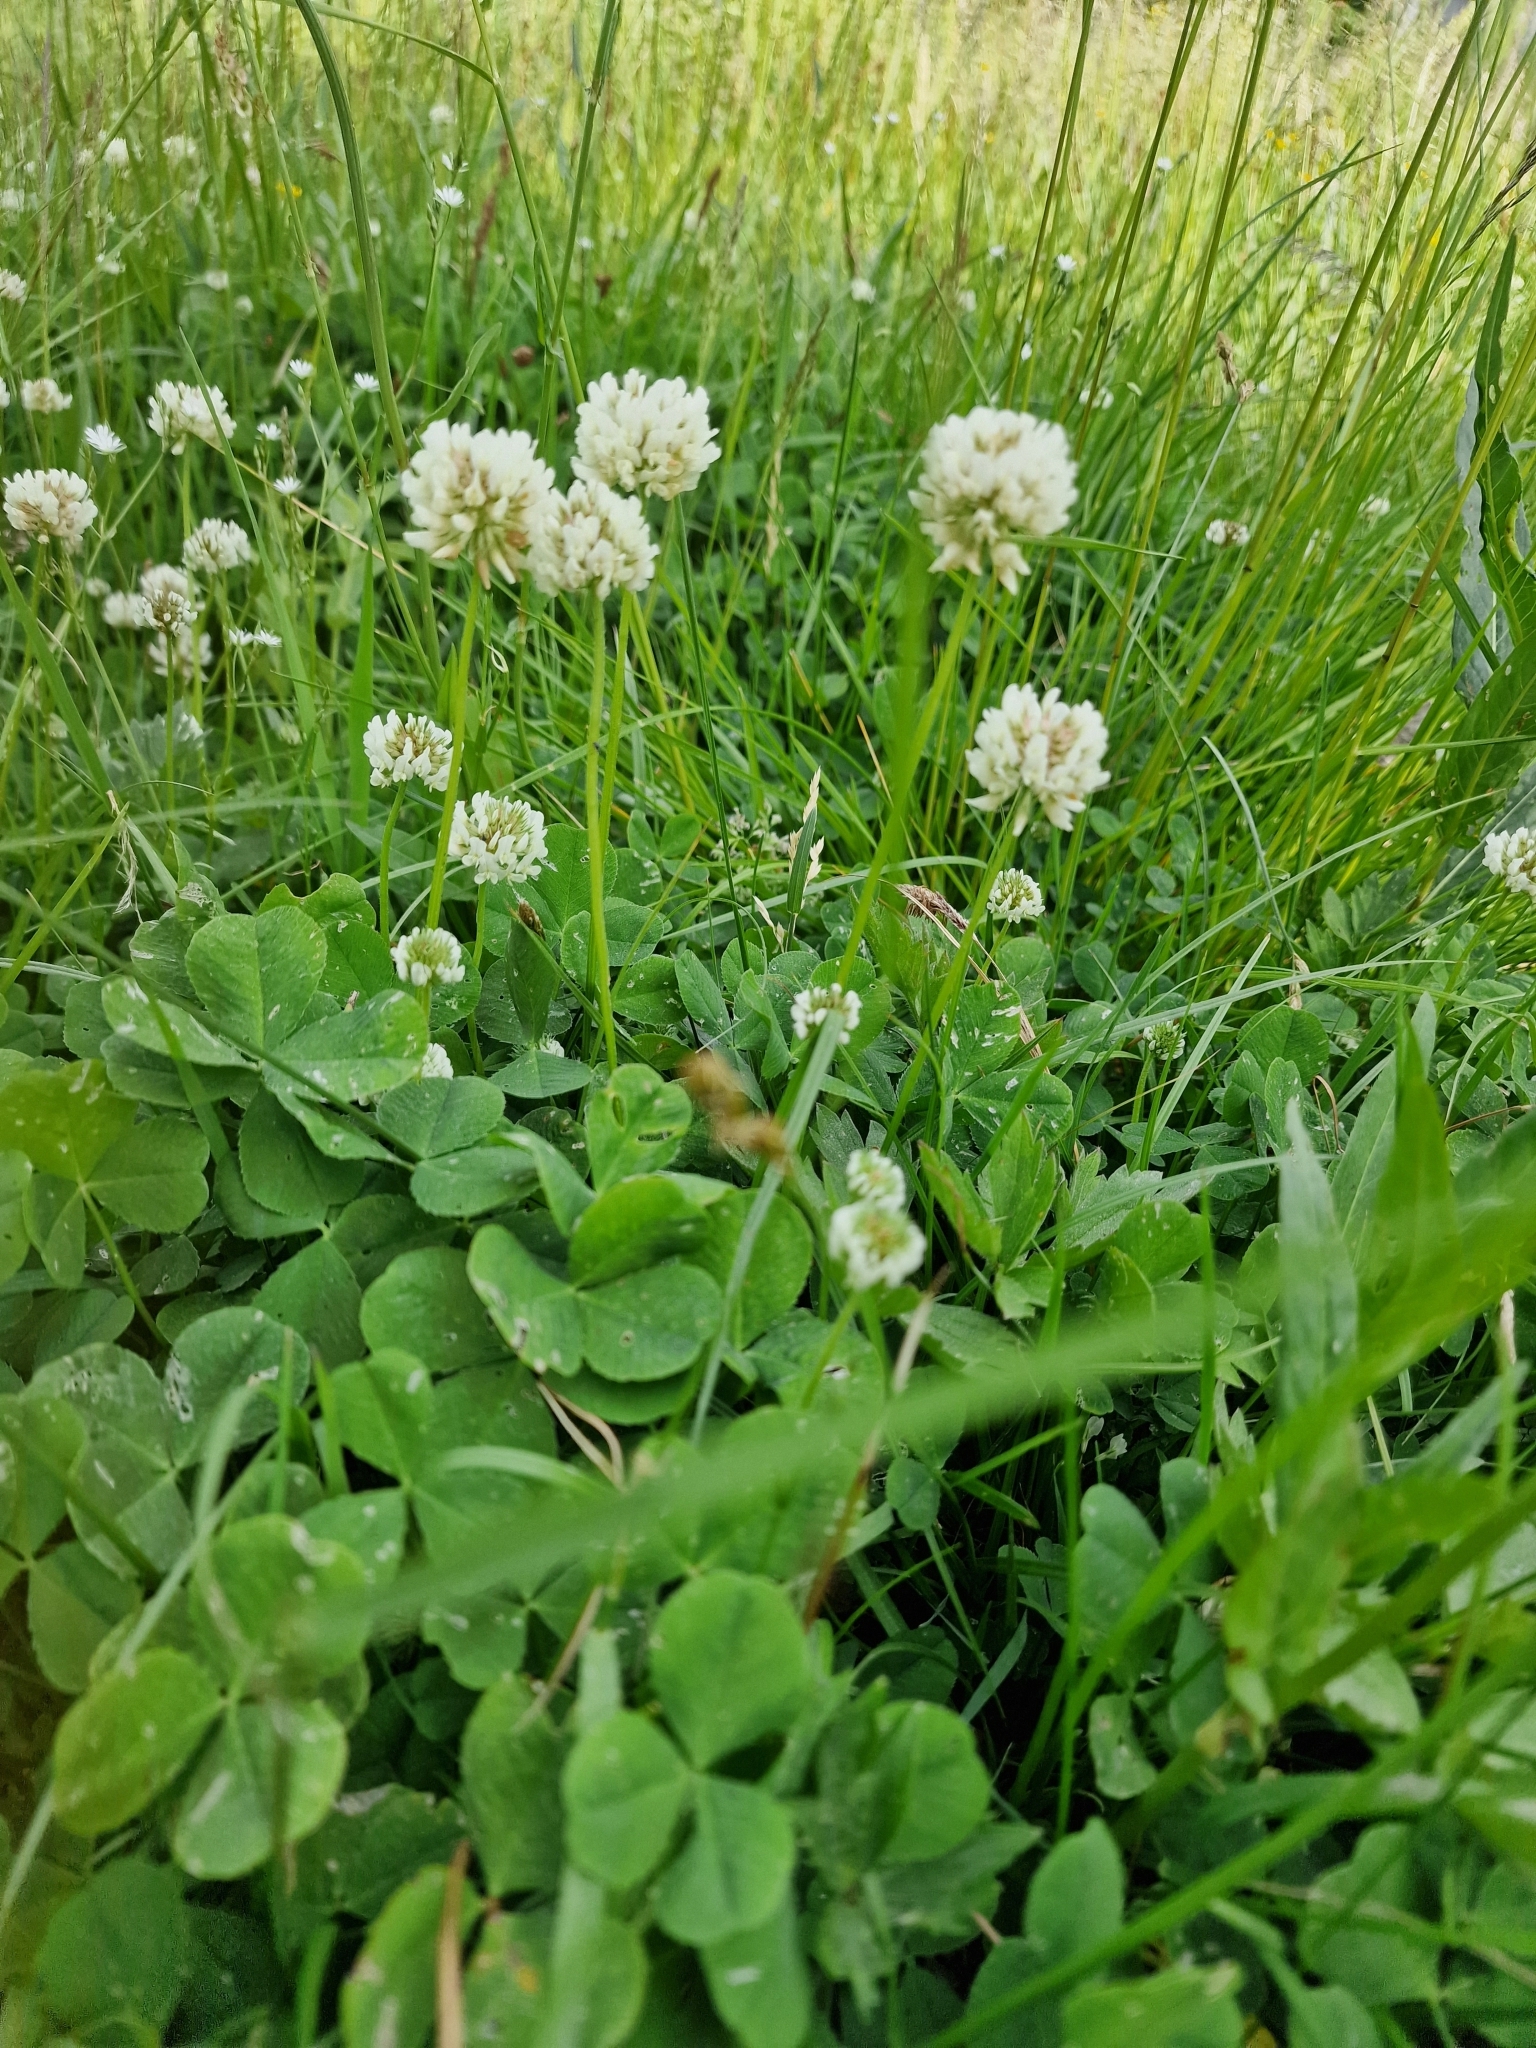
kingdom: Plantae
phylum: Tracheophyta
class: Magnoliopsida
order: Fabales
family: Fabaceae
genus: Trifolium
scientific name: Trifolium repens
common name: White clover
